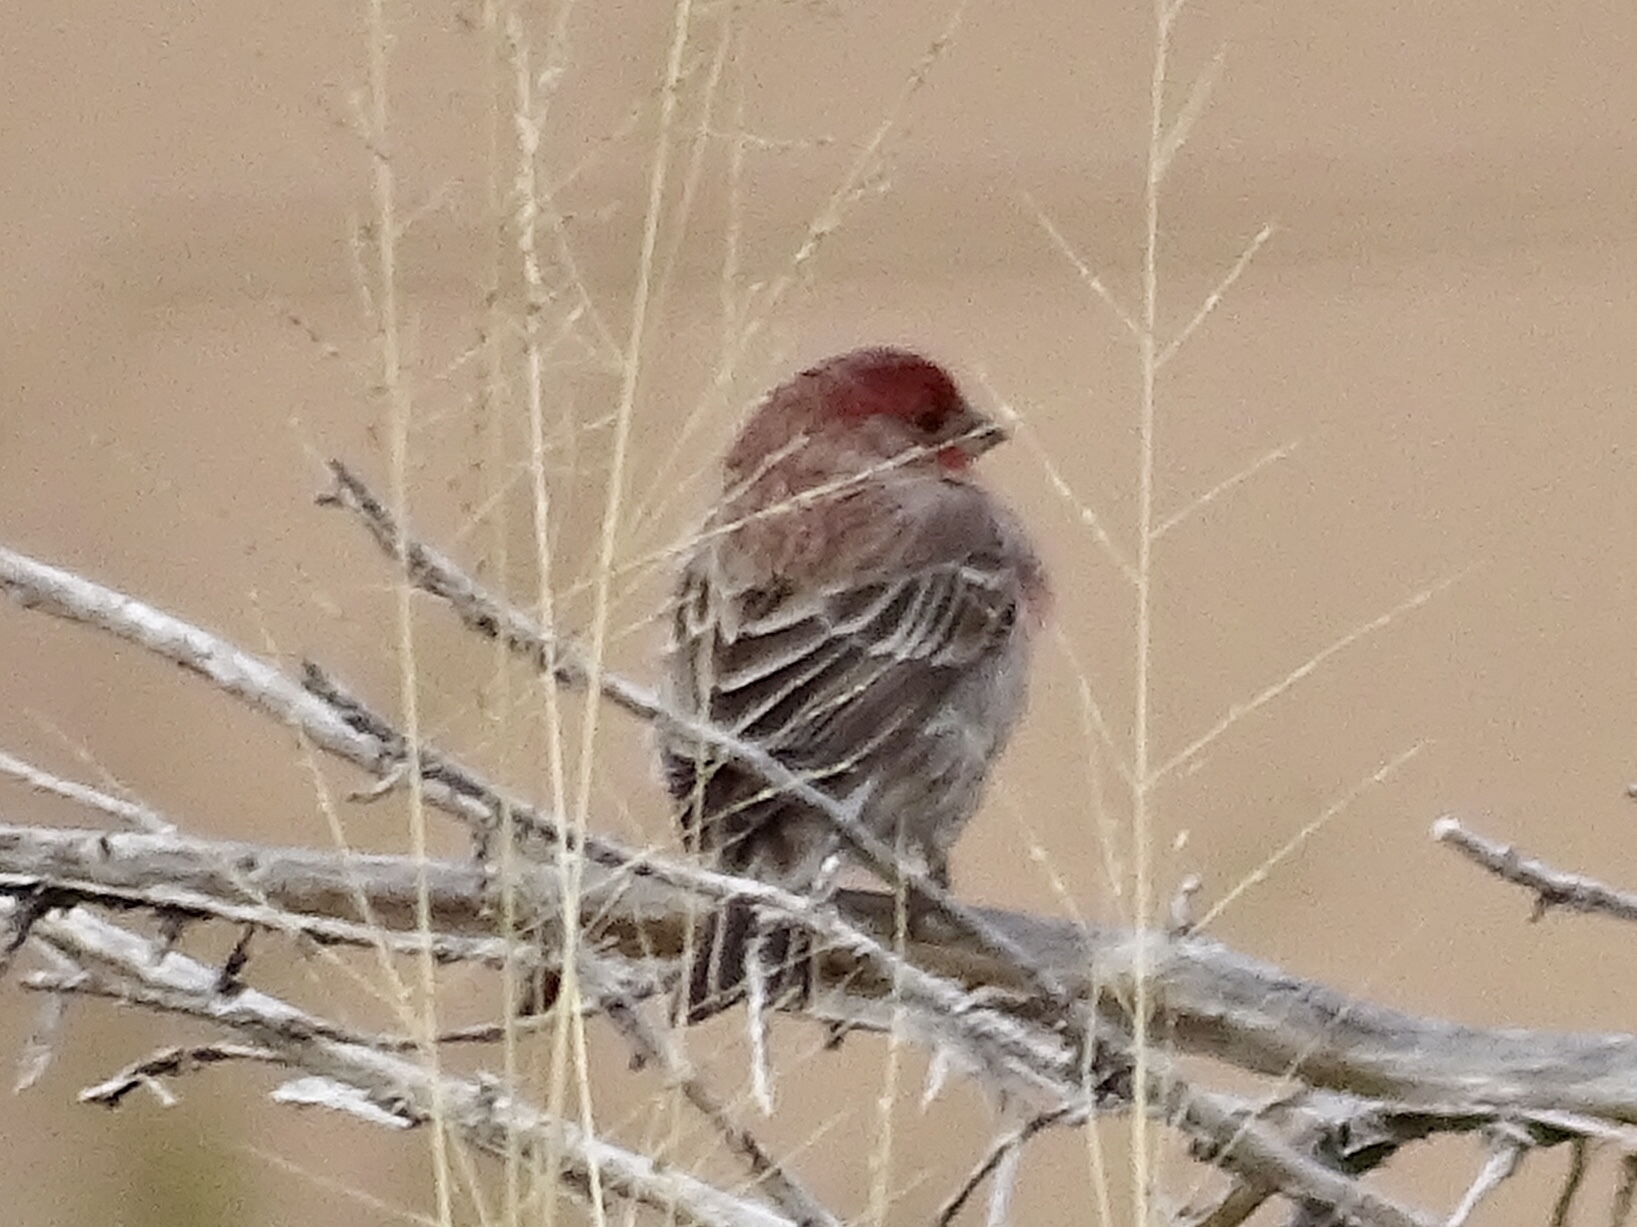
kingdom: Animalia
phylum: Chordata
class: Aves
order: Passeriformes
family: Fringillidae
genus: Haemorhous
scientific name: Haemorhous mexicanus
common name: House finch
